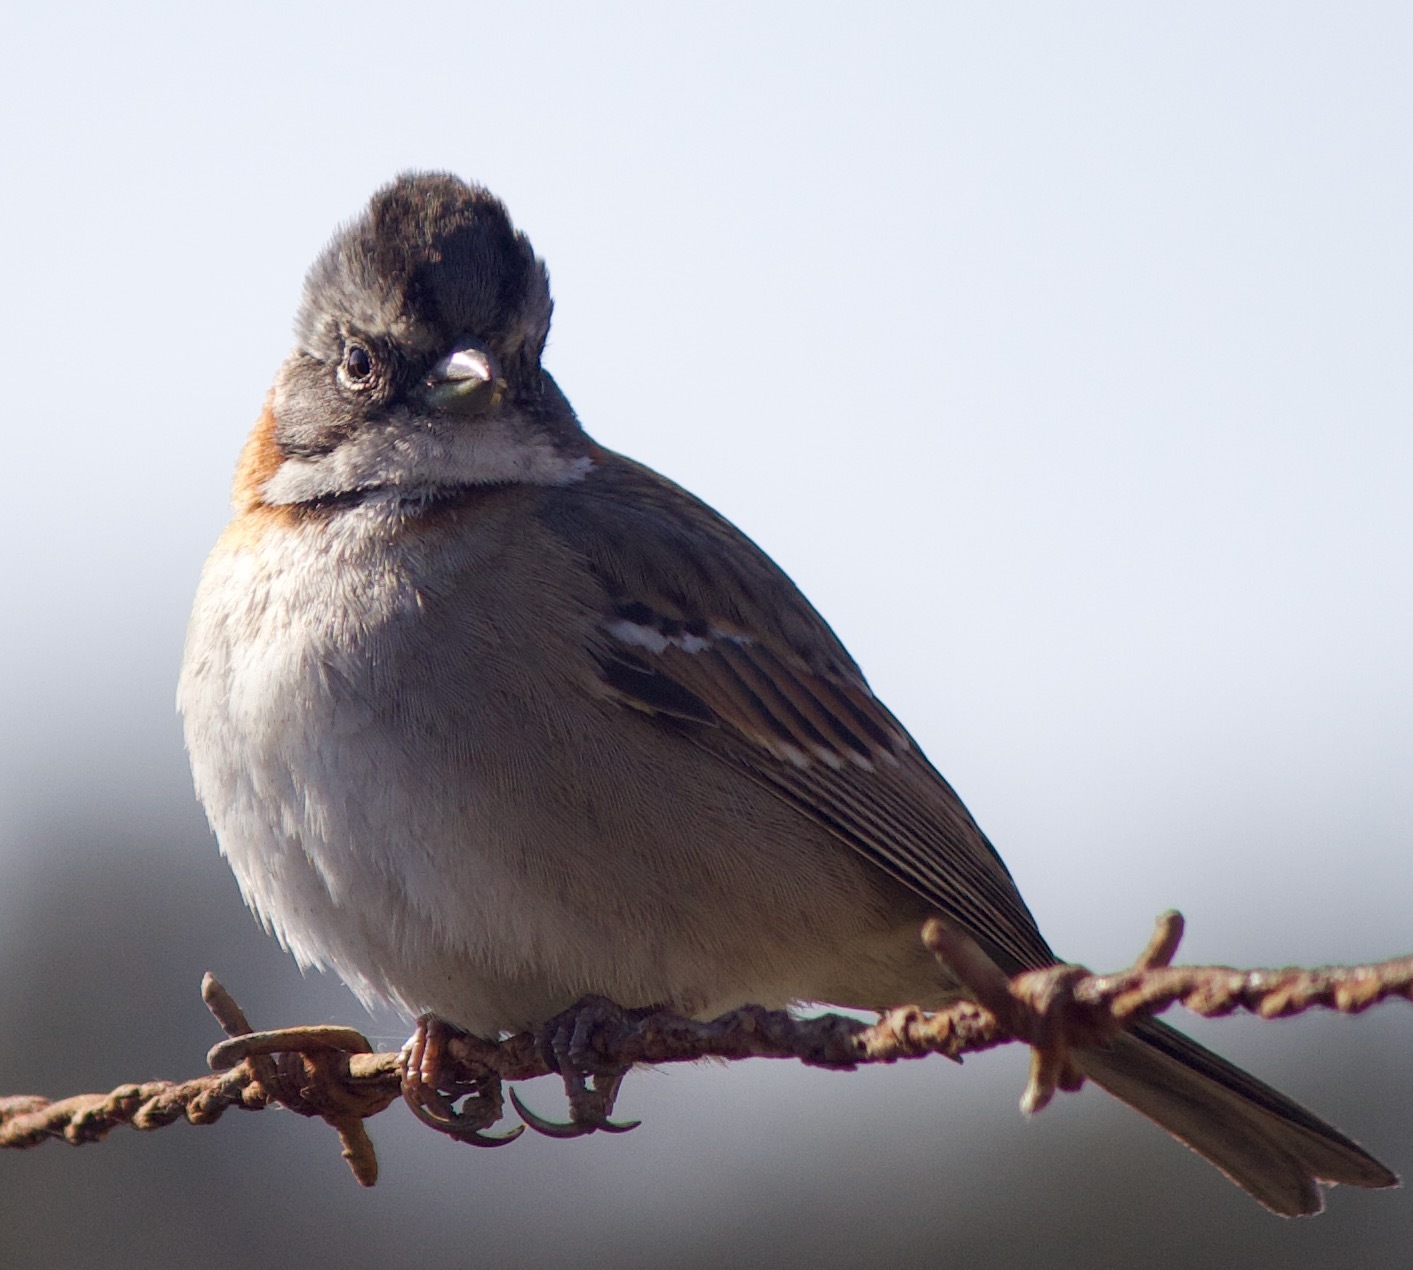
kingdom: Animalia
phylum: Chordata
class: Aves
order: Passeriformes
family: Passerellidae
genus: Zonotrichia
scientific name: Zonotrichia capensis
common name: Rufous-collared sparrow
